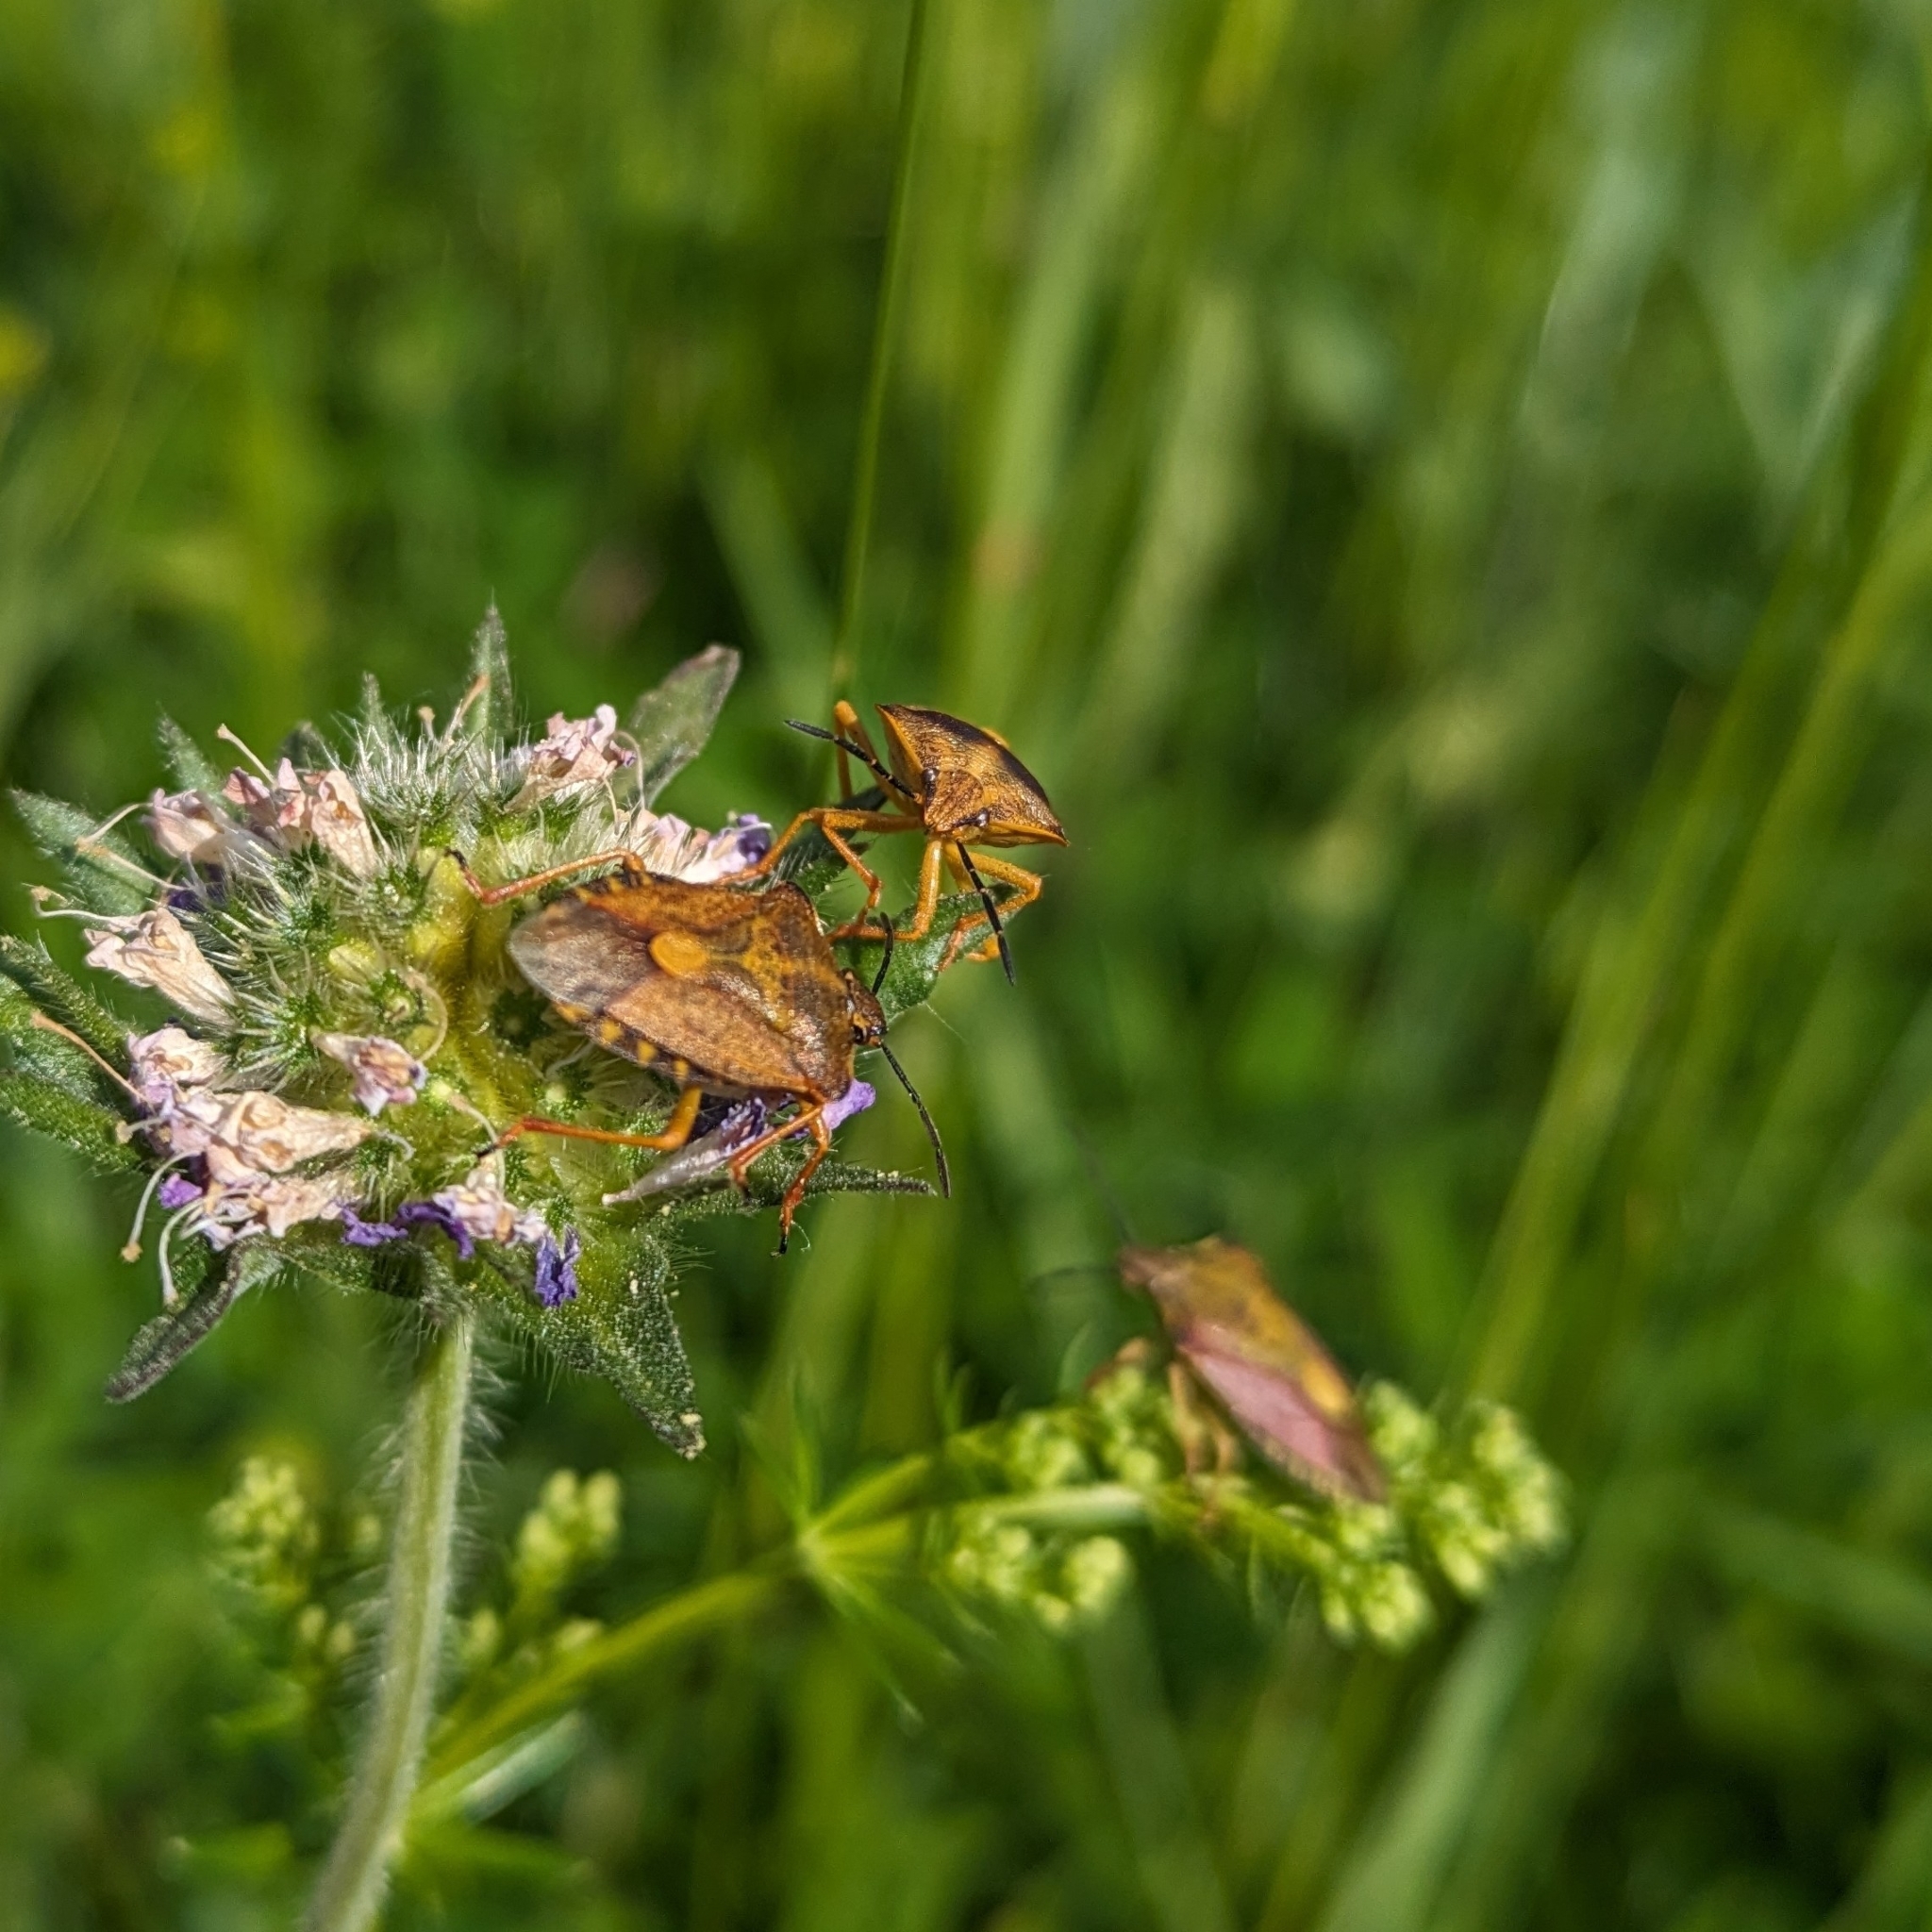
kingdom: Animalia
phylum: Arthropoda
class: Insecta
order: Hemiptera
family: Pentatomidae
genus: Carpocoris
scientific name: Carpocoris purpureipennis
